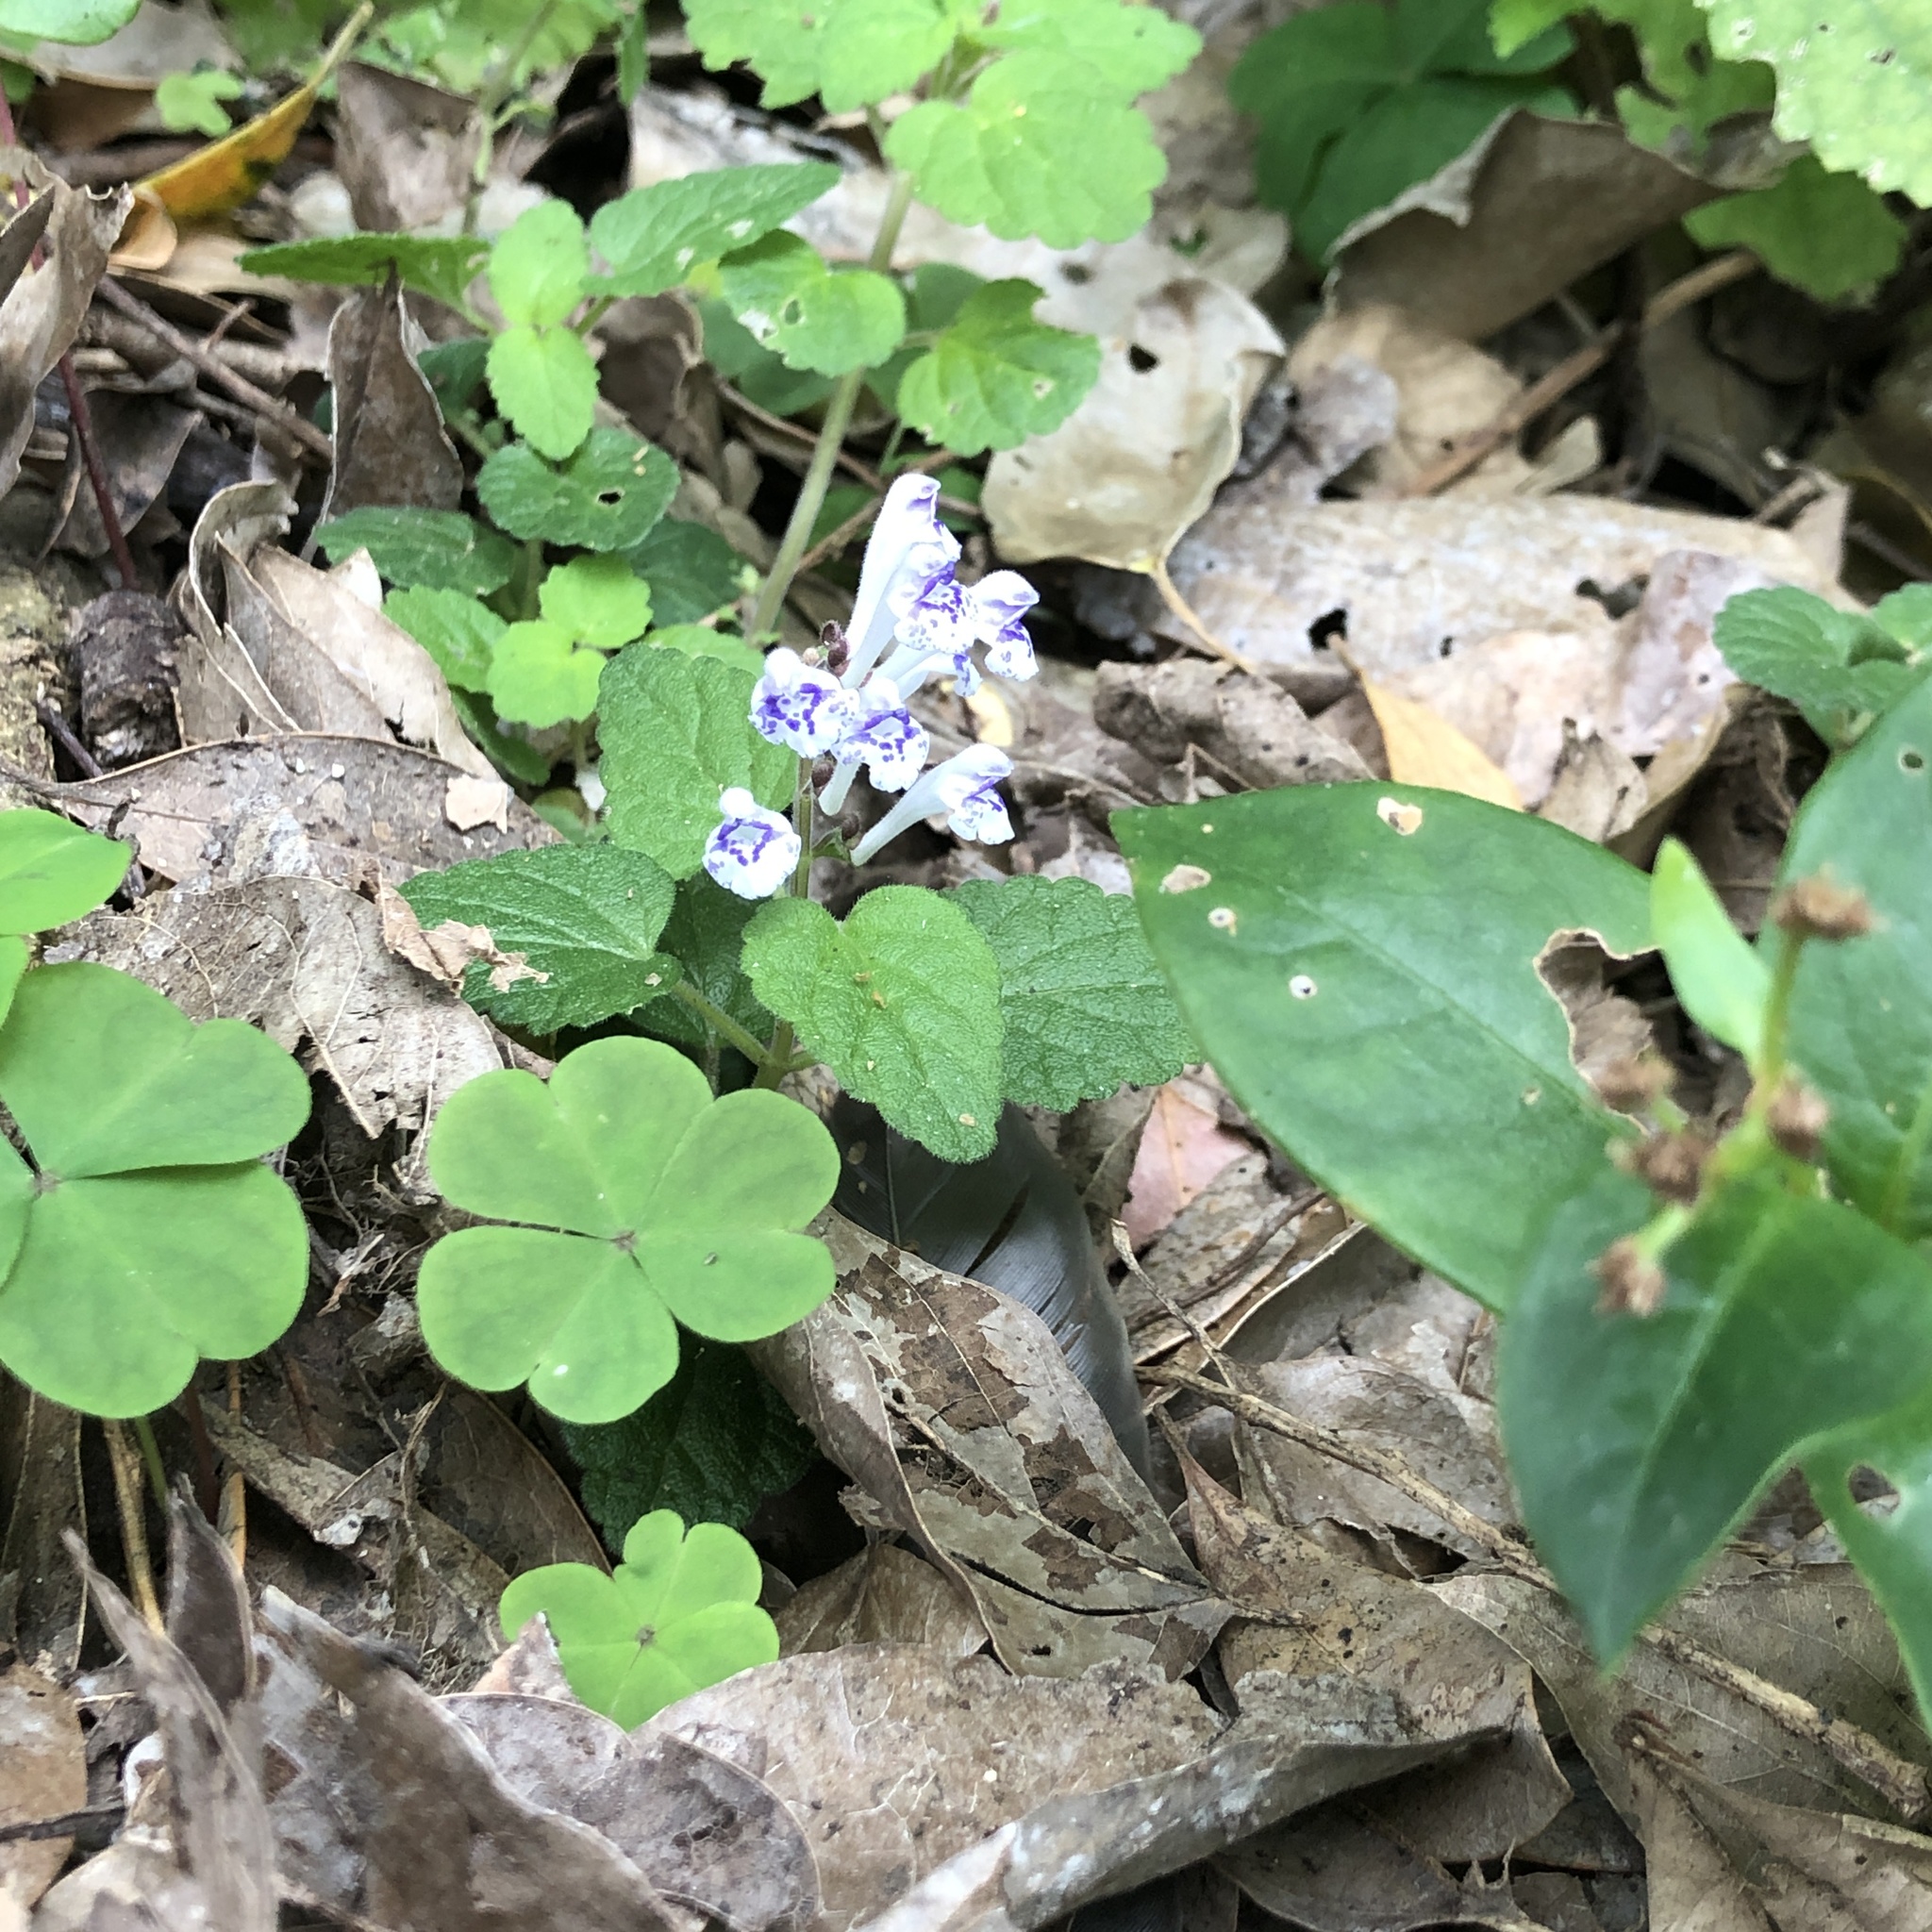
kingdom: Plantae
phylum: Tracheophyta
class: Magnoliopsida
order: Lamiales
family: Lamiaceae
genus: Scutellaria
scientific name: Scutellaria rubropunctata
